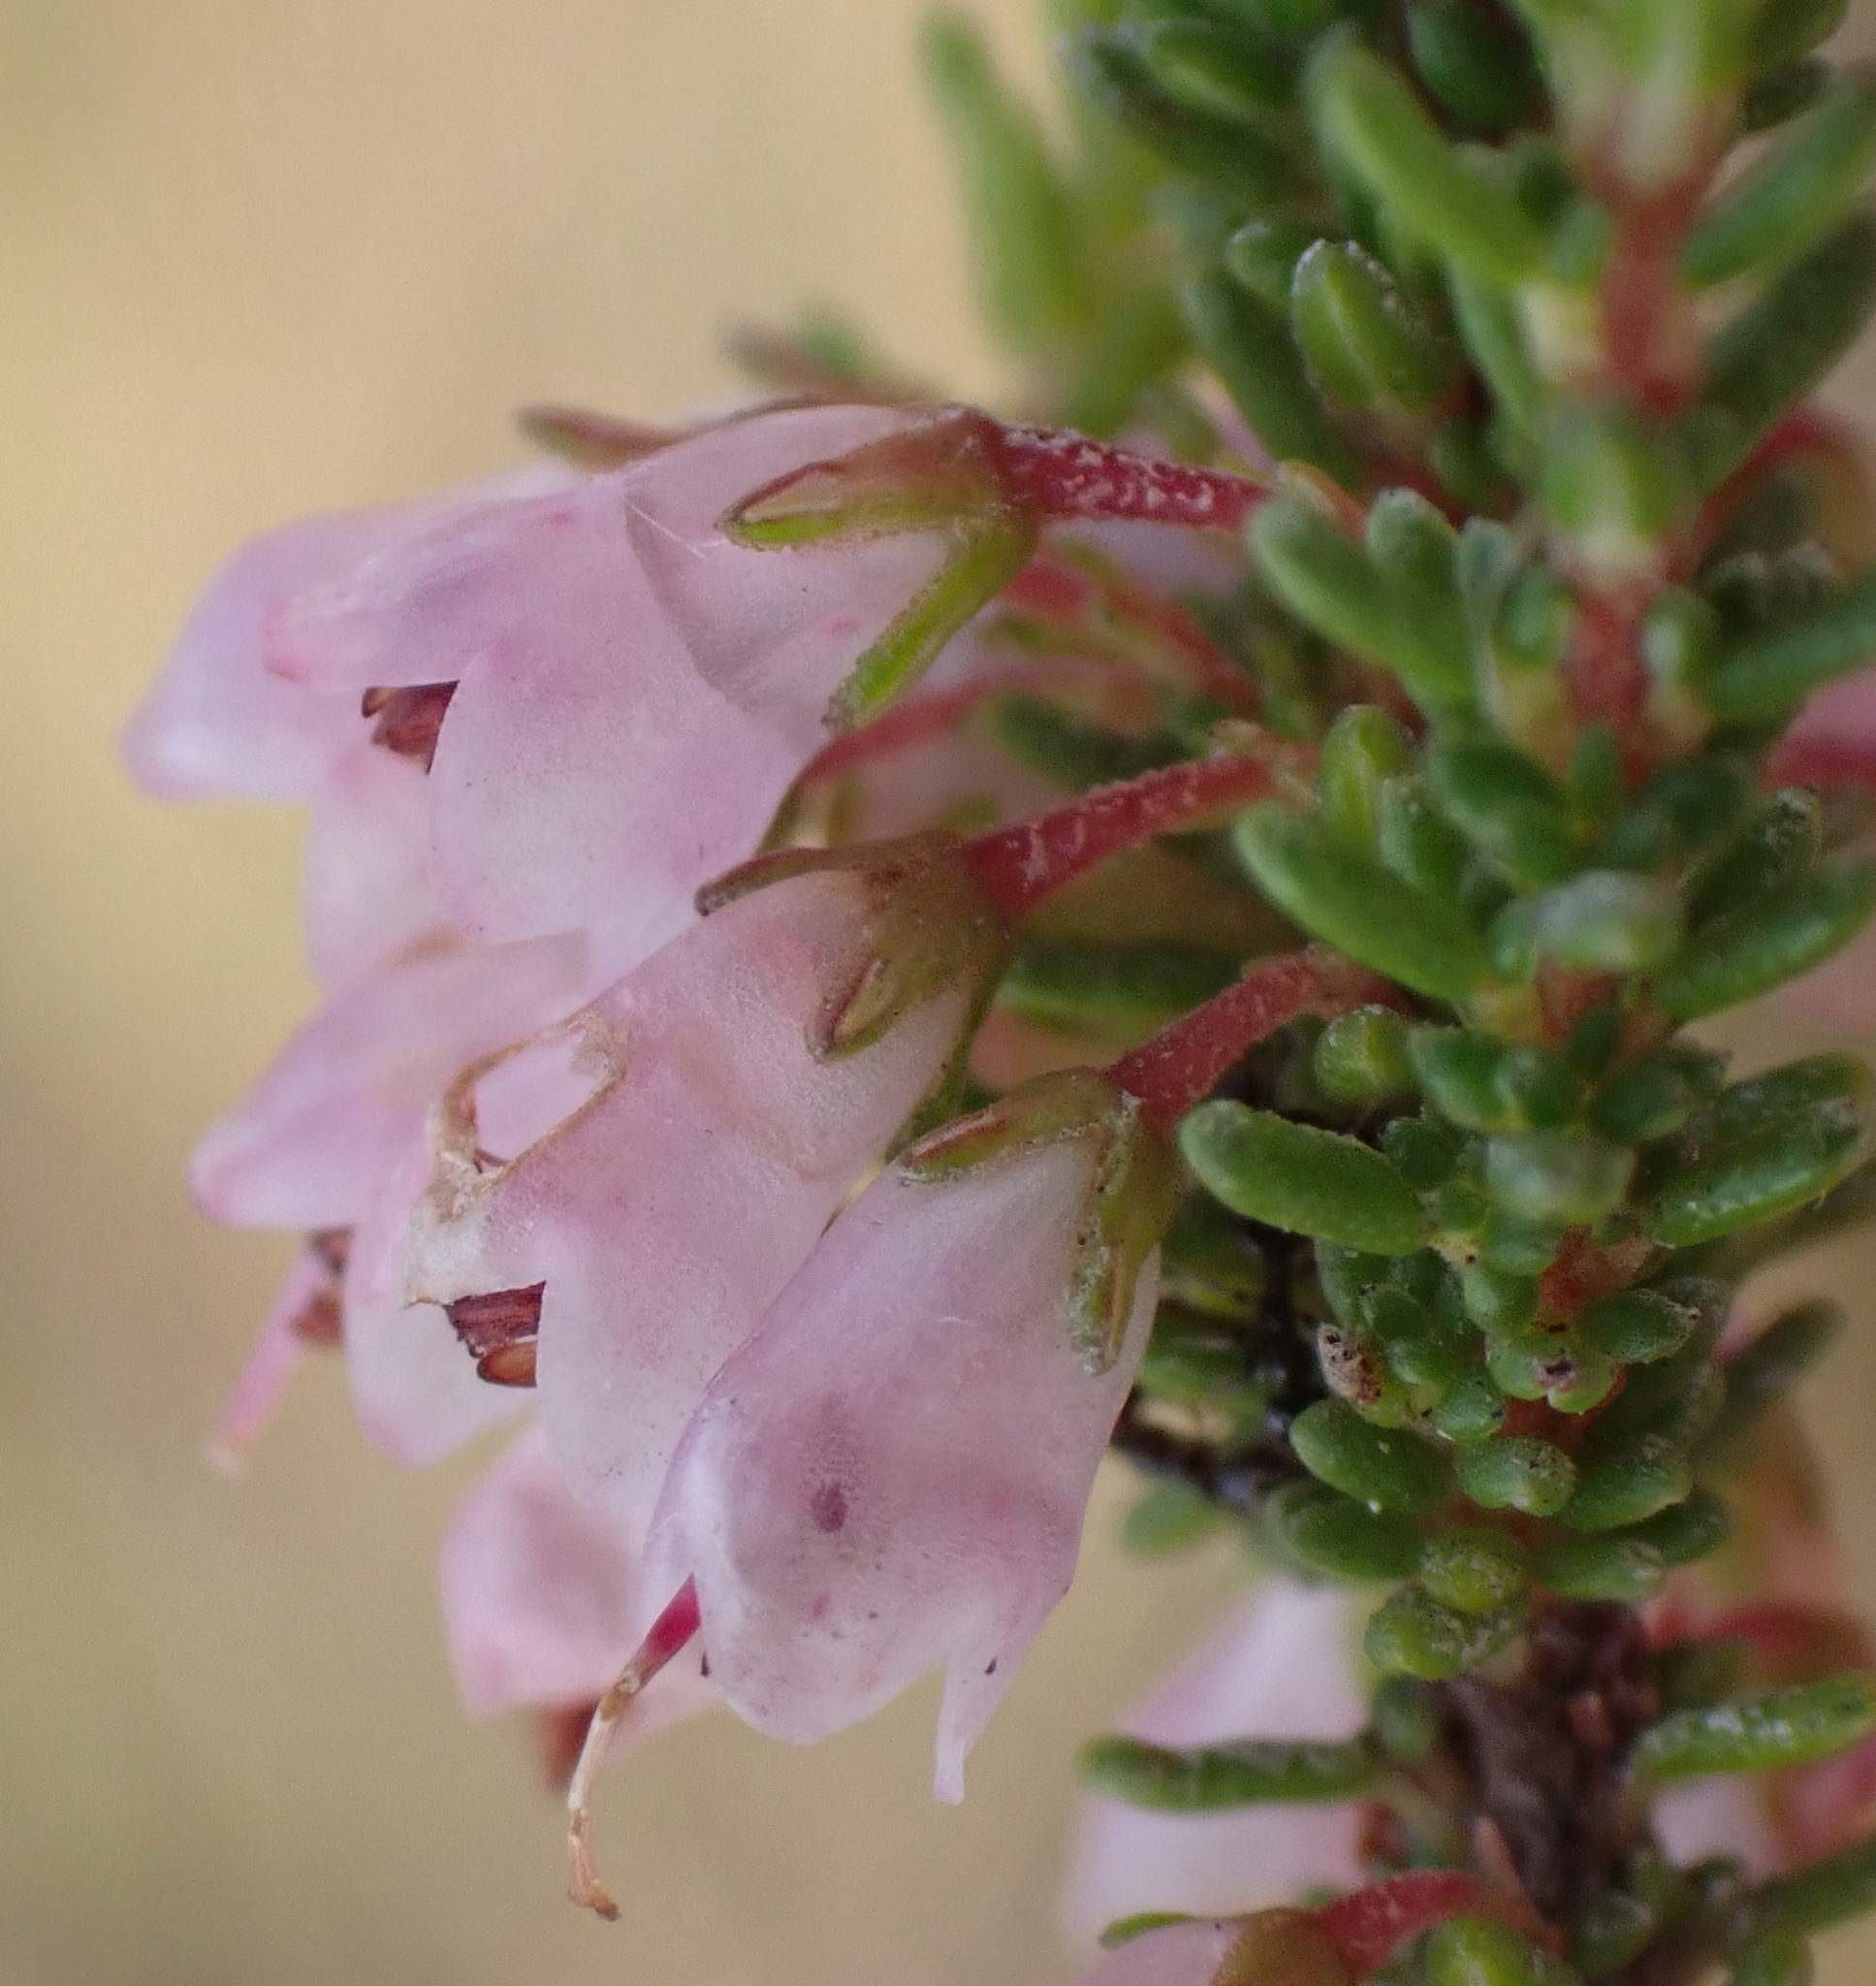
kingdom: Plantae
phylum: Tracheophyta
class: Magnoliopsida
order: Ericales
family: Ericaceae
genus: Erica
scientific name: Erica deflexa
